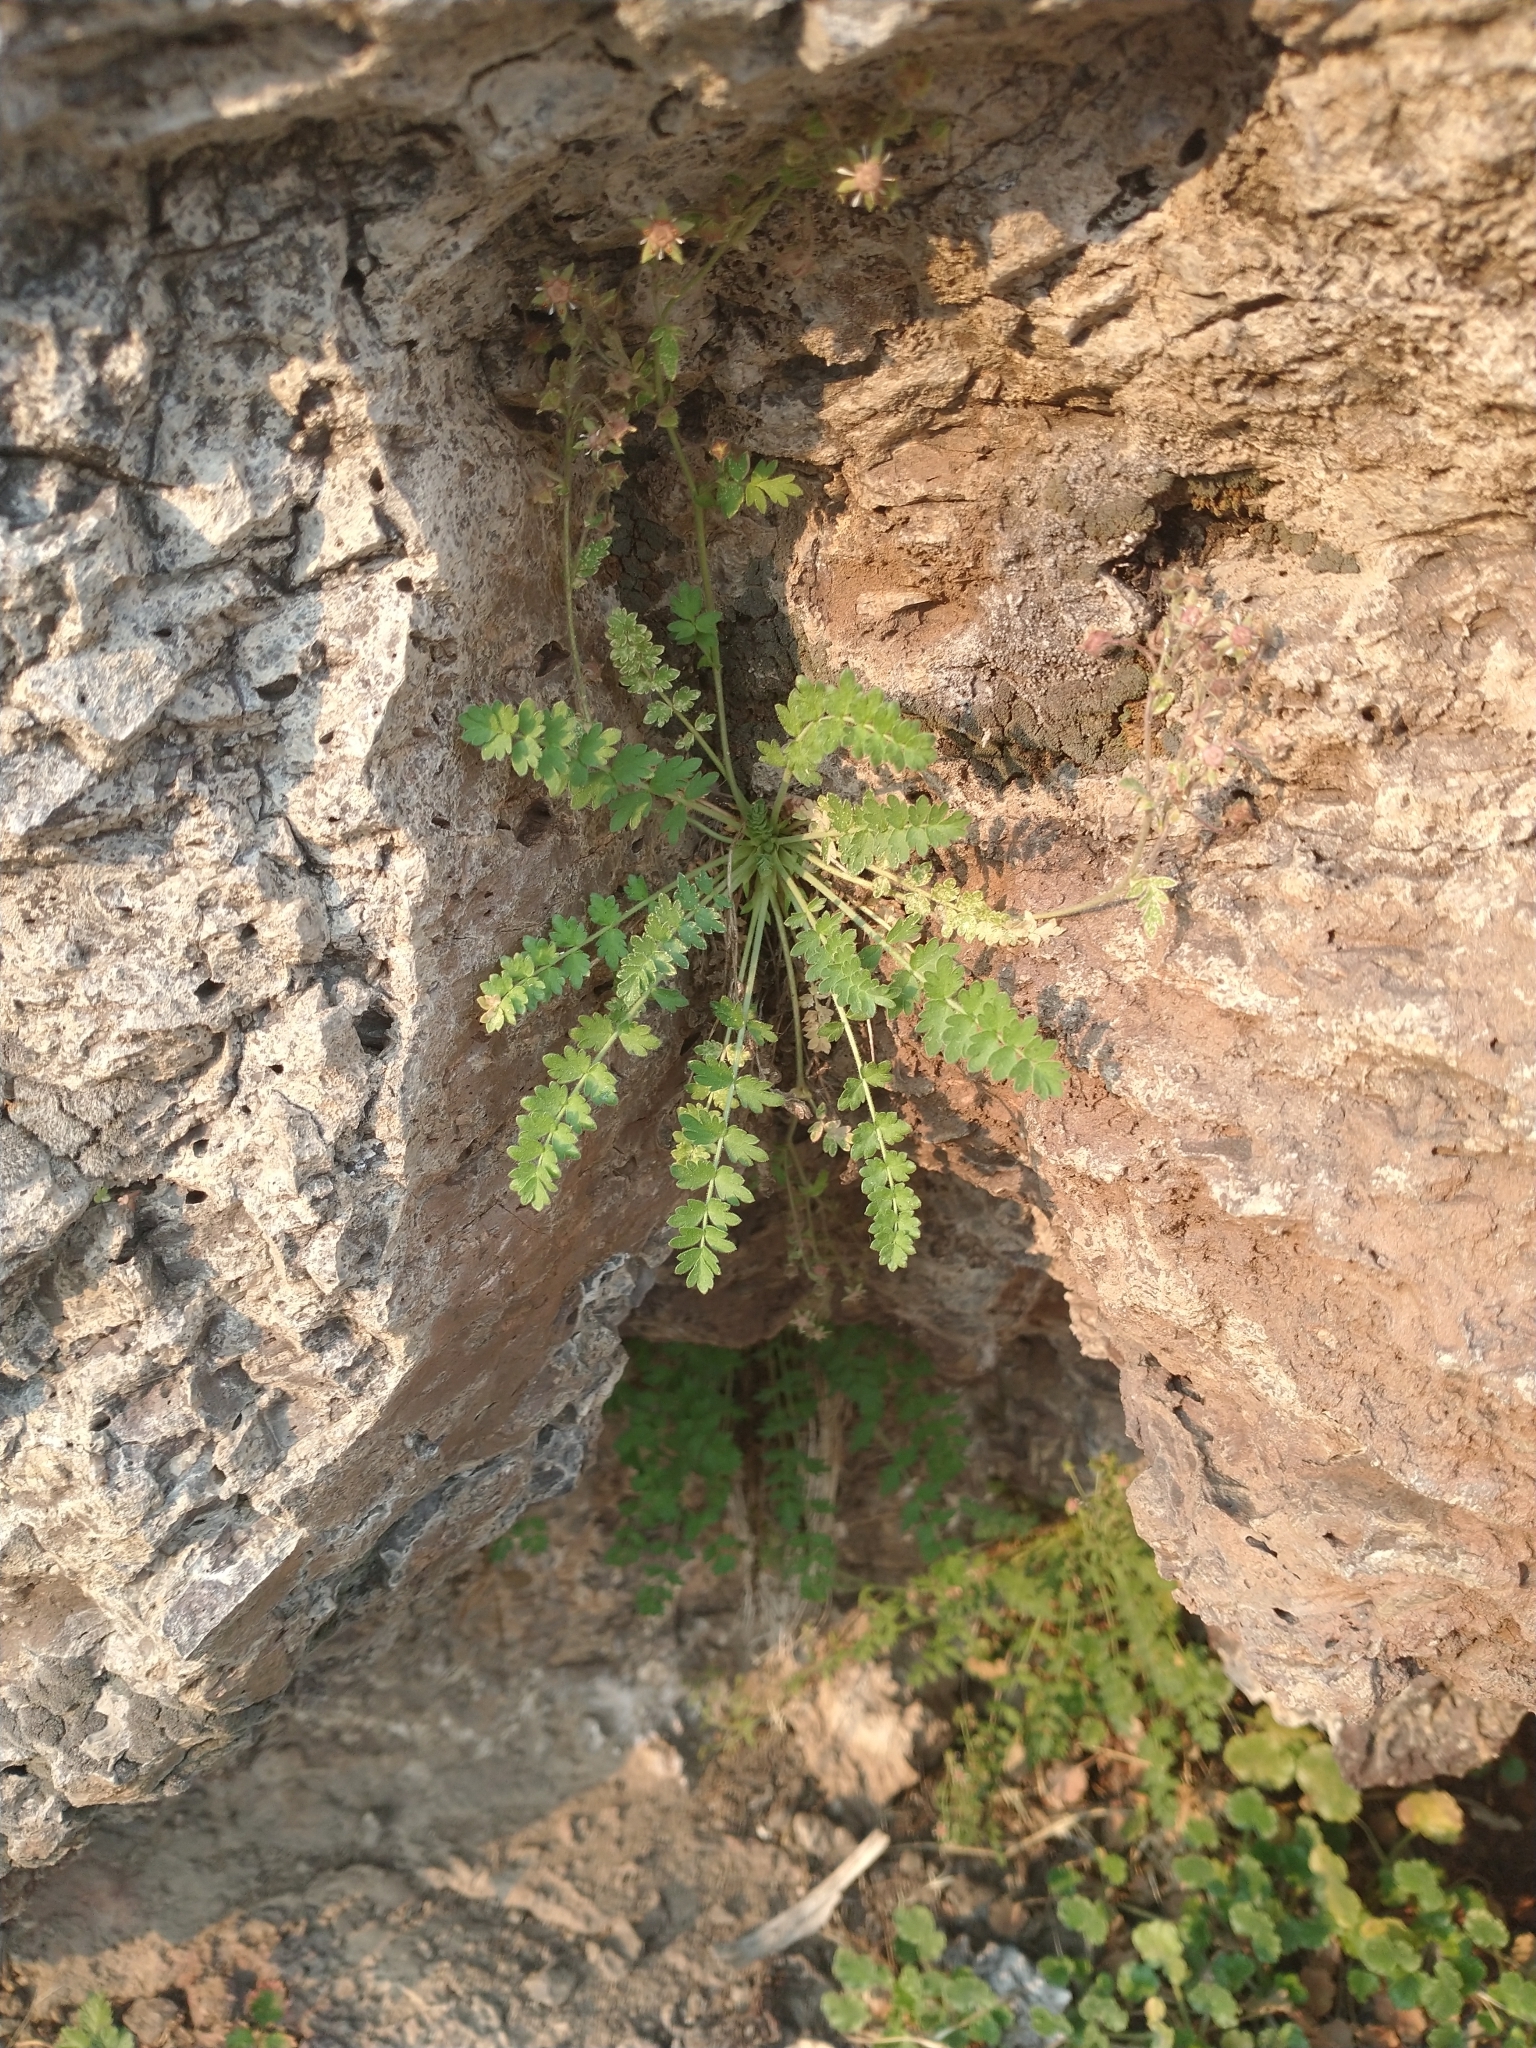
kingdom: Plantae
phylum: Tracheophyta
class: Magnoliopsida
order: Rosales
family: Rosaceae
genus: Potentilla
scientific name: Potentilla baileyi
